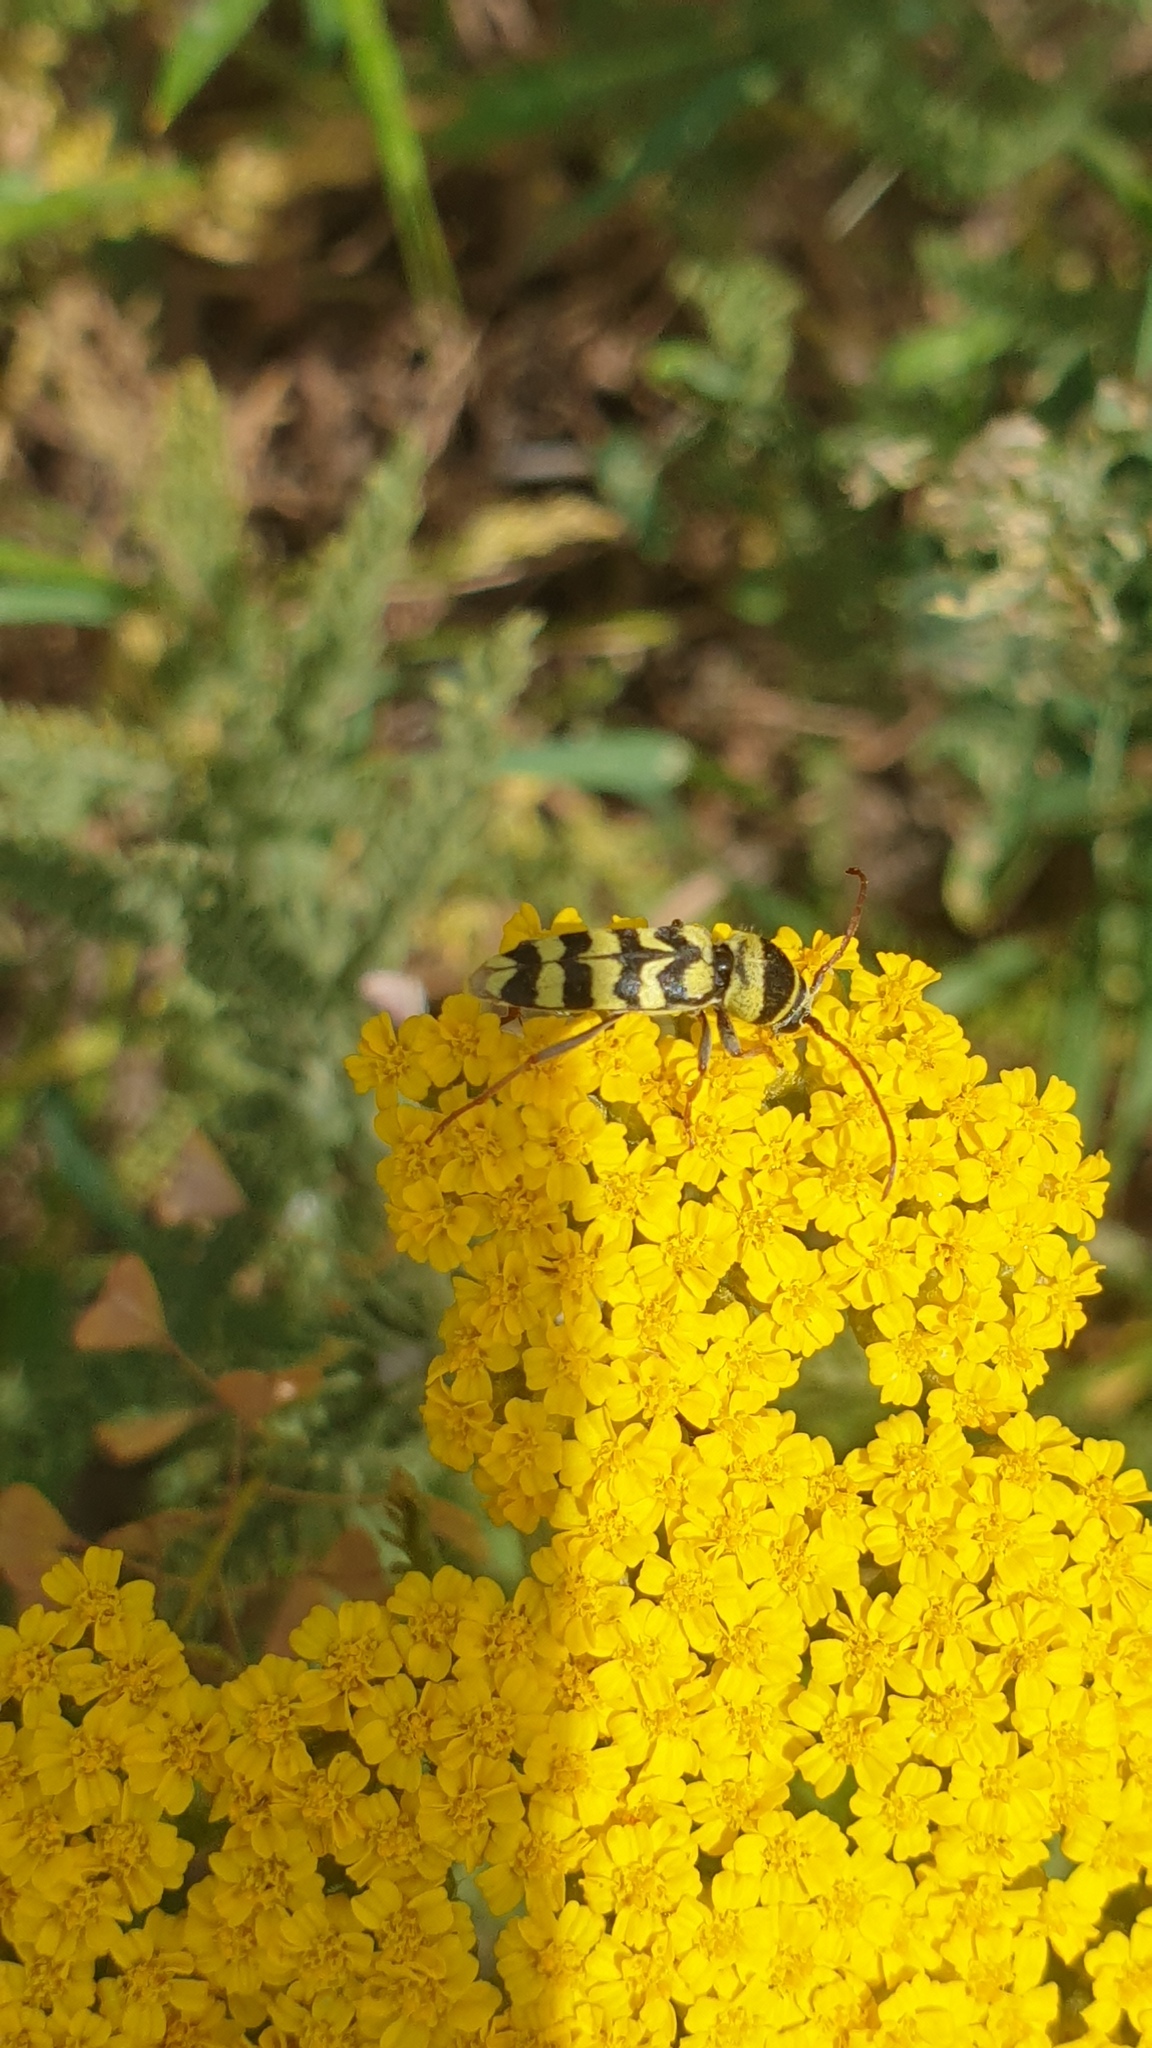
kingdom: Animalia
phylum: Arthropoda
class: Insecta
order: Coleoptera
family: Cerambycidae
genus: Plagionotus
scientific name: Plagionotus floralis
